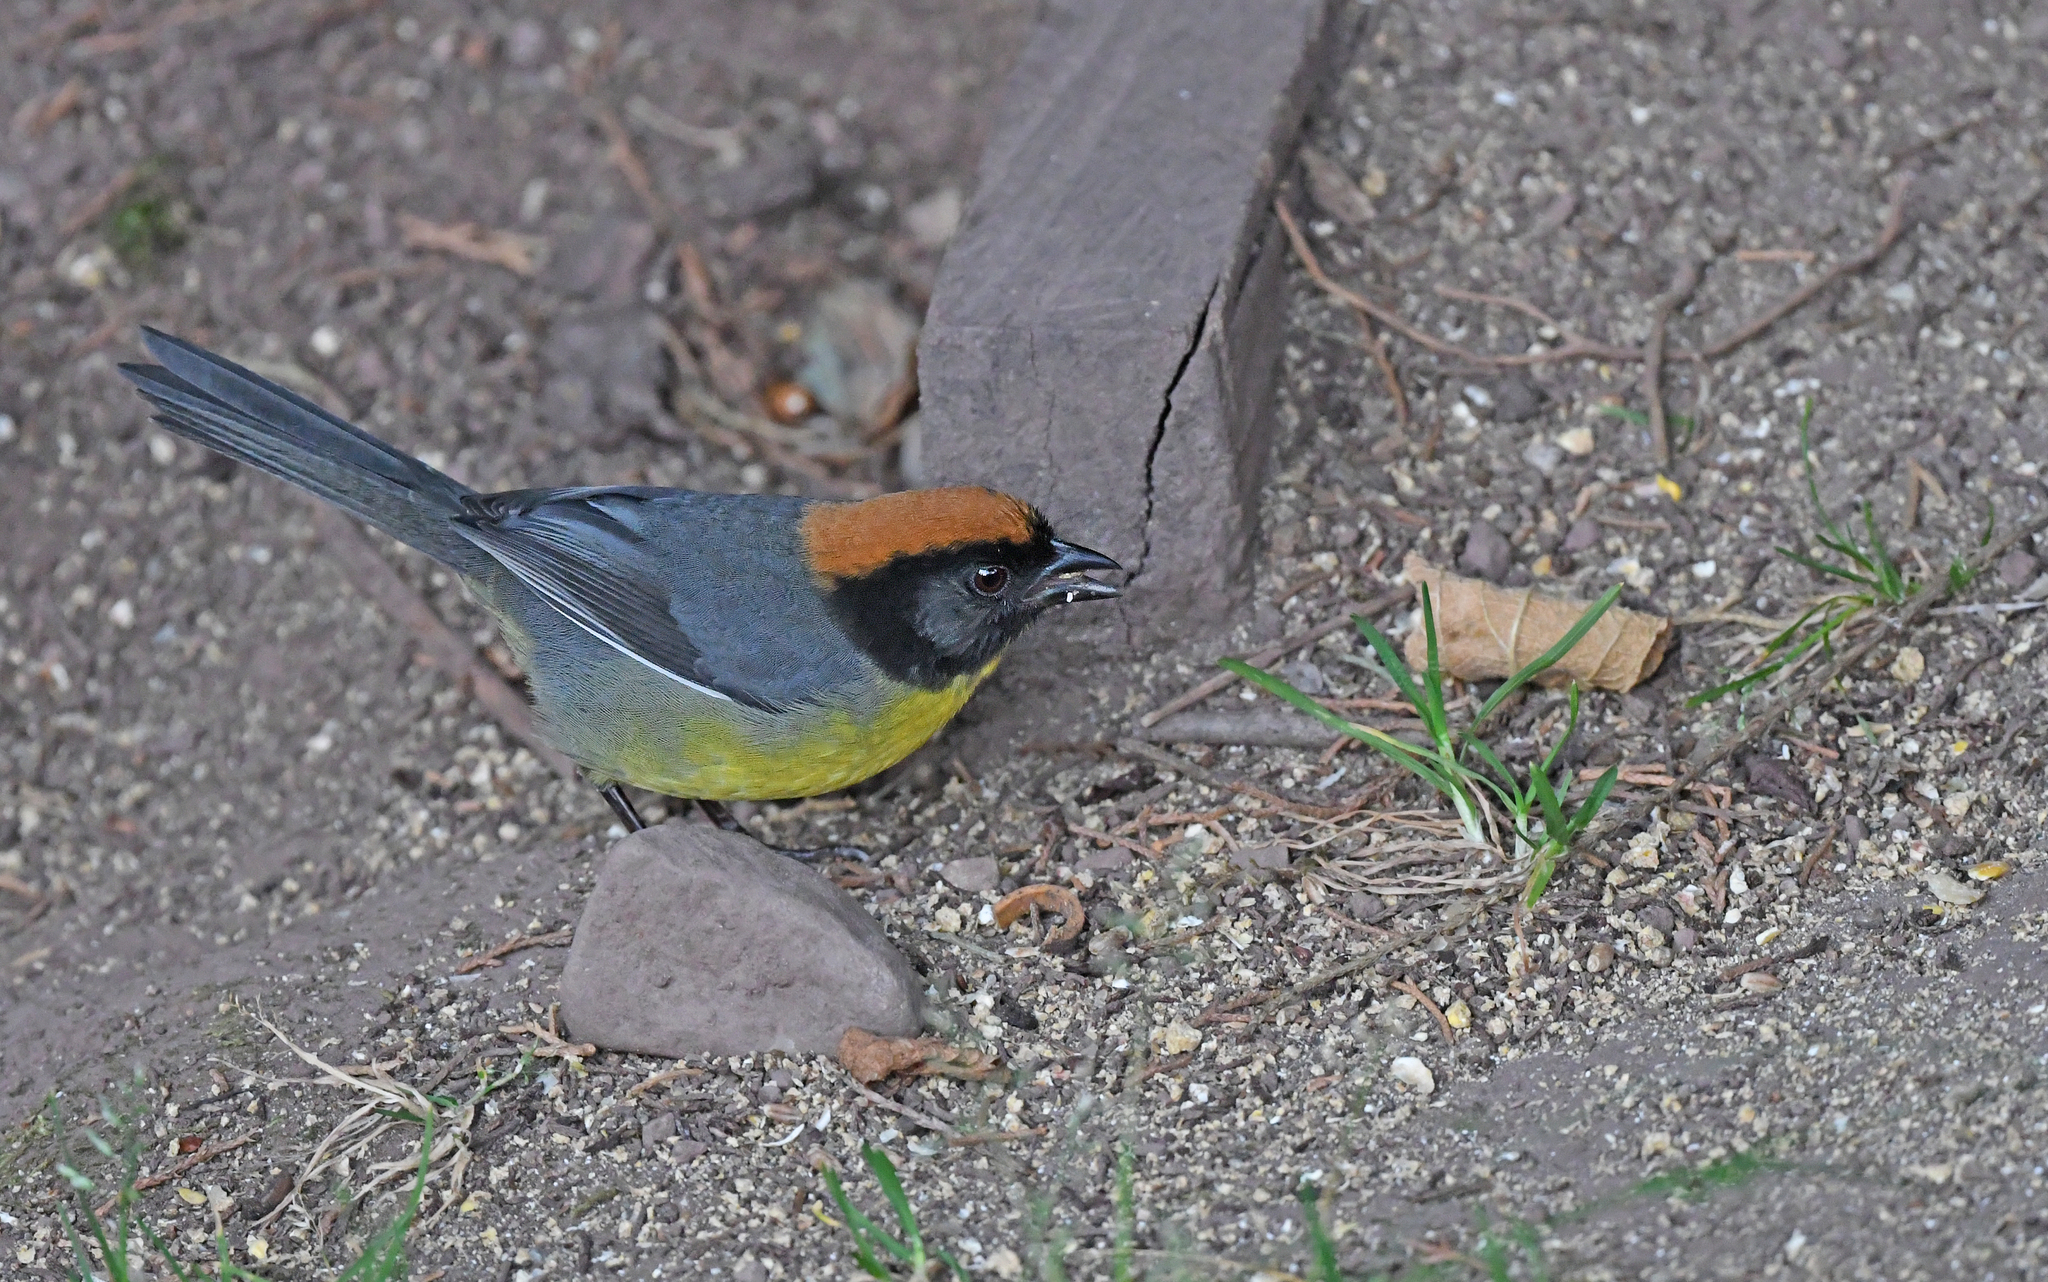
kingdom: Animalia
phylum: Chordata
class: Aves
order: Passeriformes
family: Passerellidae
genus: Atlapetes
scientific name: Atlapetes nigrifrons
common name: Black-fronted brushfinch
